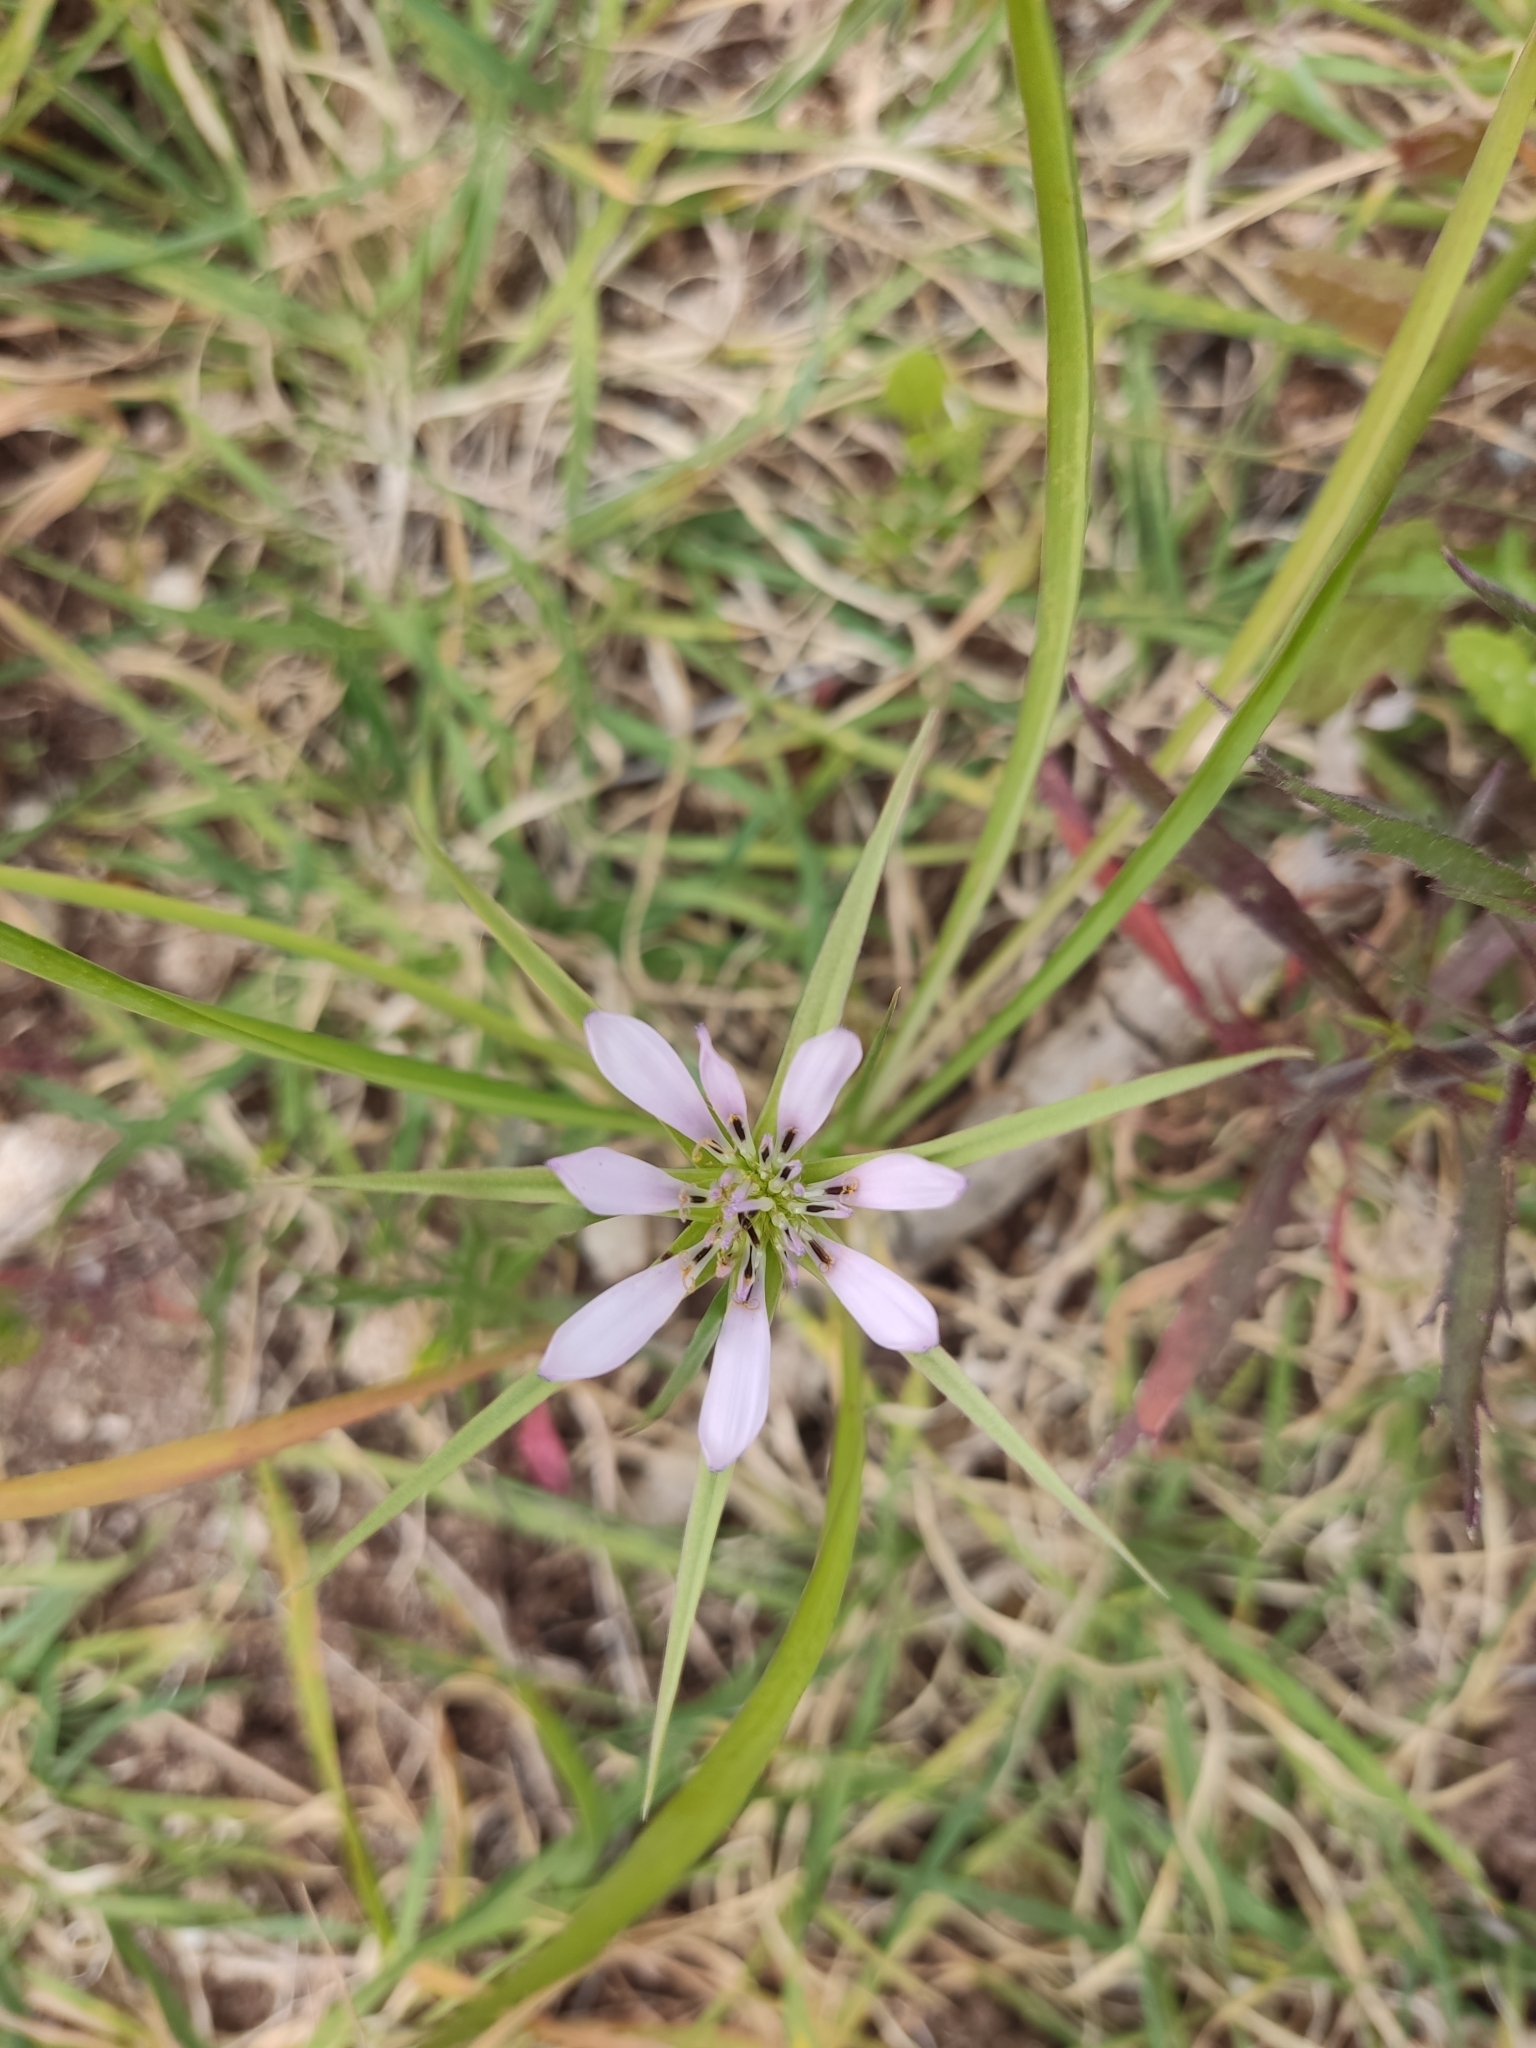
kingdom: Plantae
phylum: Tracheophyta
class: Magnoliopsida
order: Asterales
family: Asteraceae
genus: Geropogon
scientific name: Geropogon hybridus
